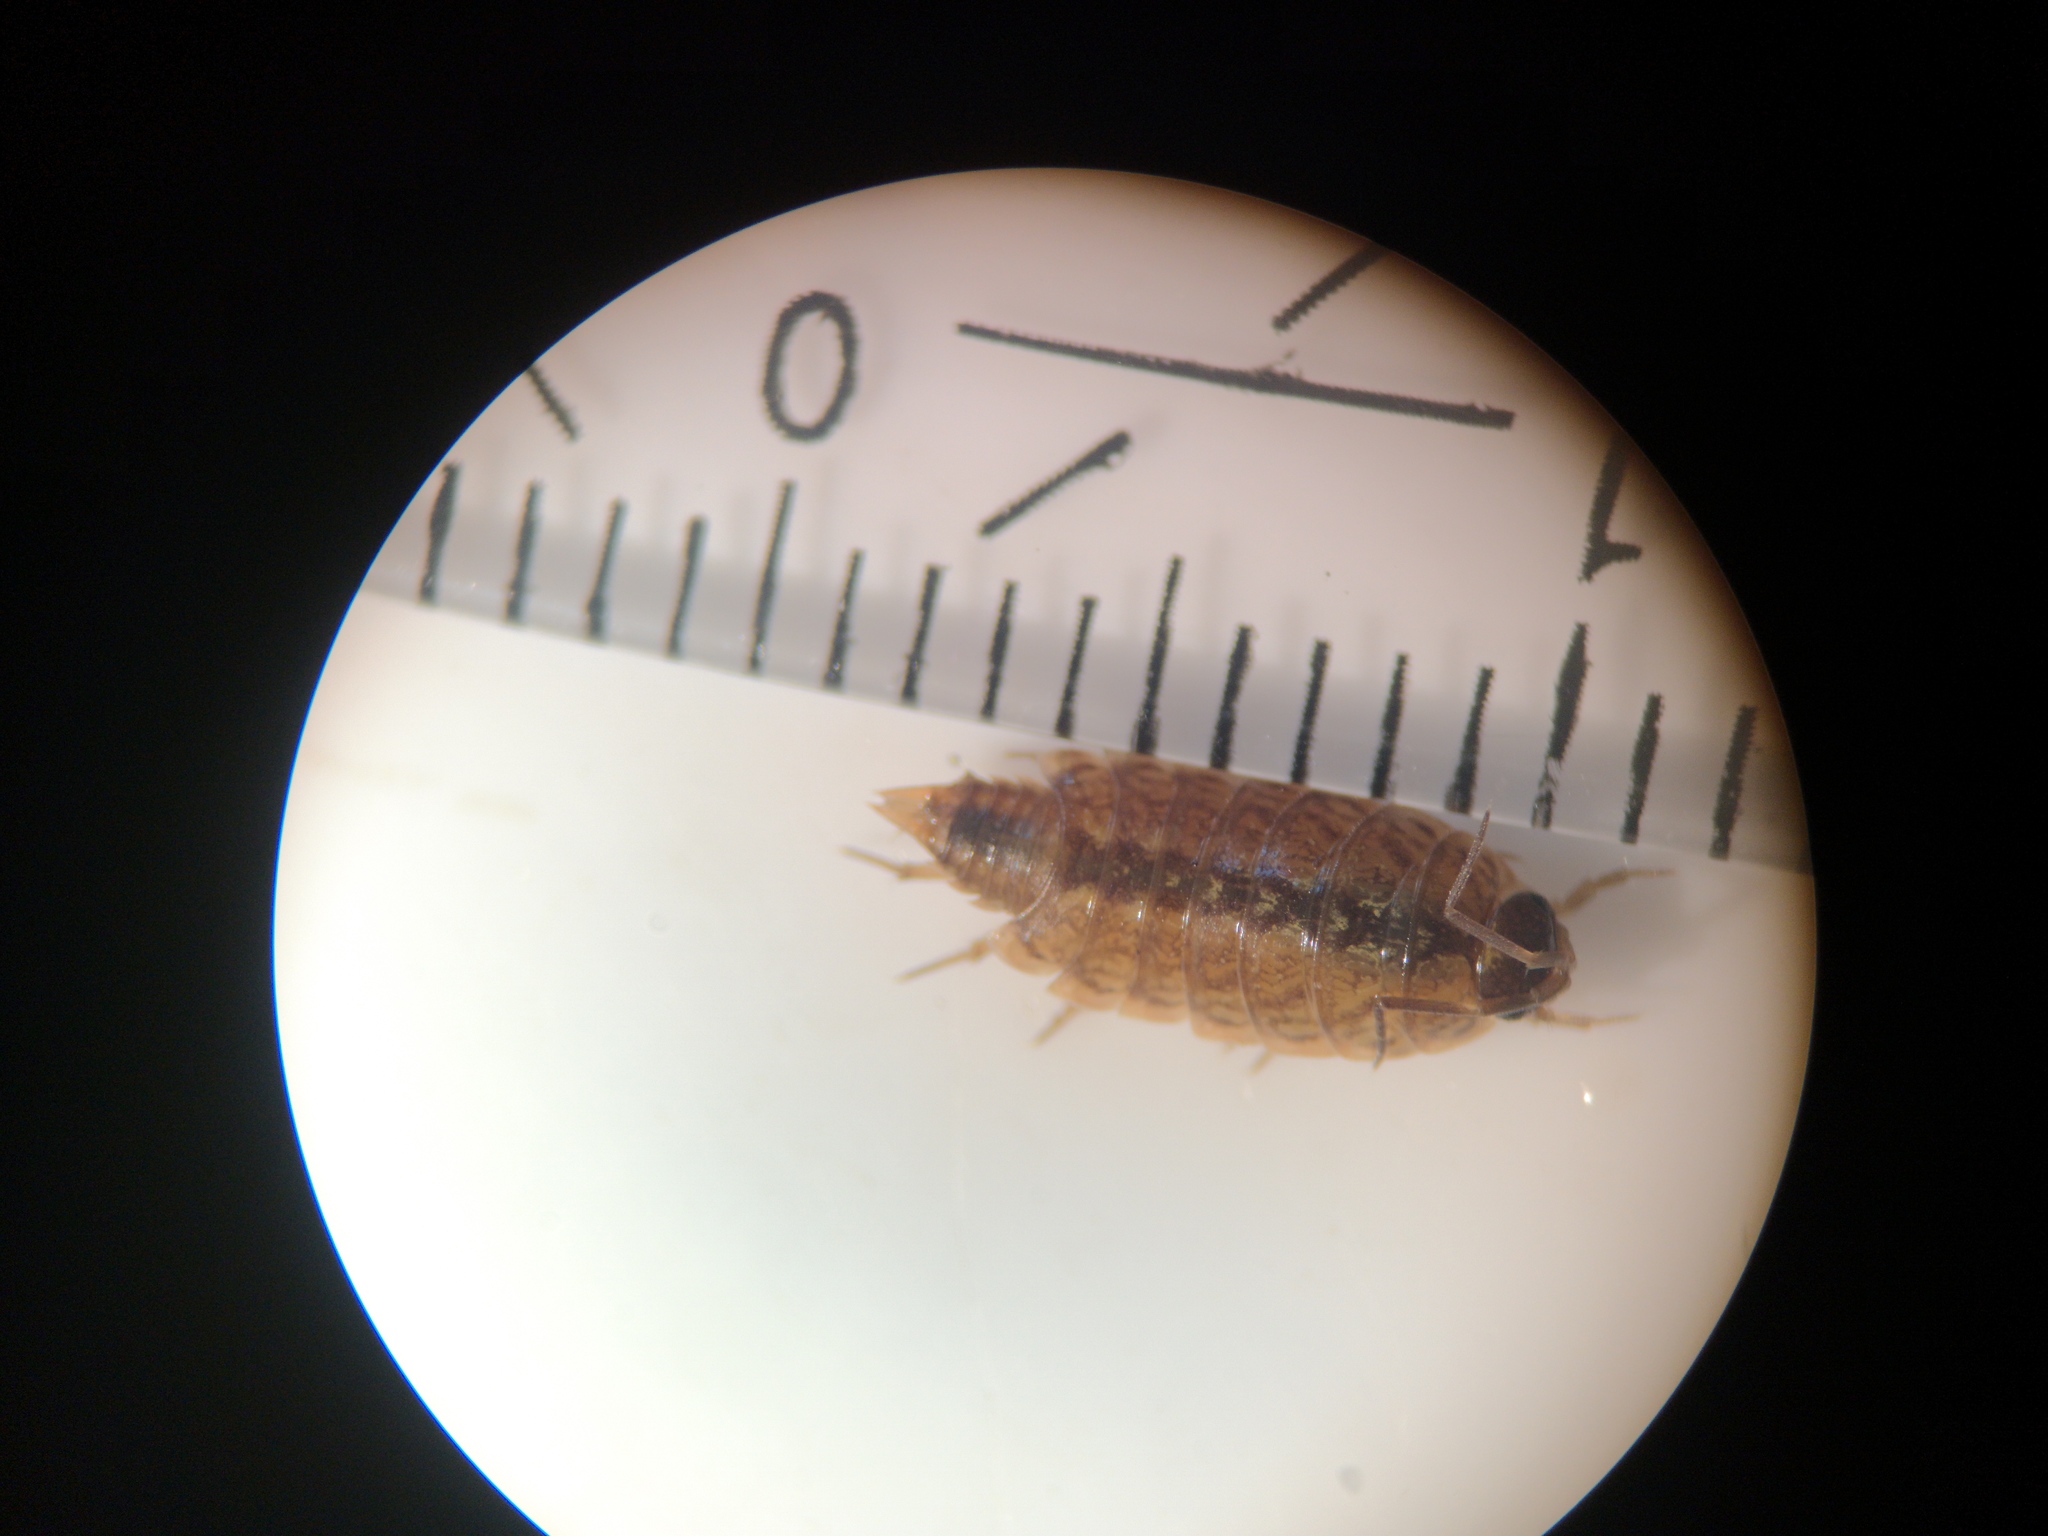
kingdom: Animalia
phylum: Arthropoda
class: Malacostraca
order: Isopoda
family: Philosciidae
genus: Philoscia
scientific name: Philoscia muscorum
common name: Common striped woodlouse
